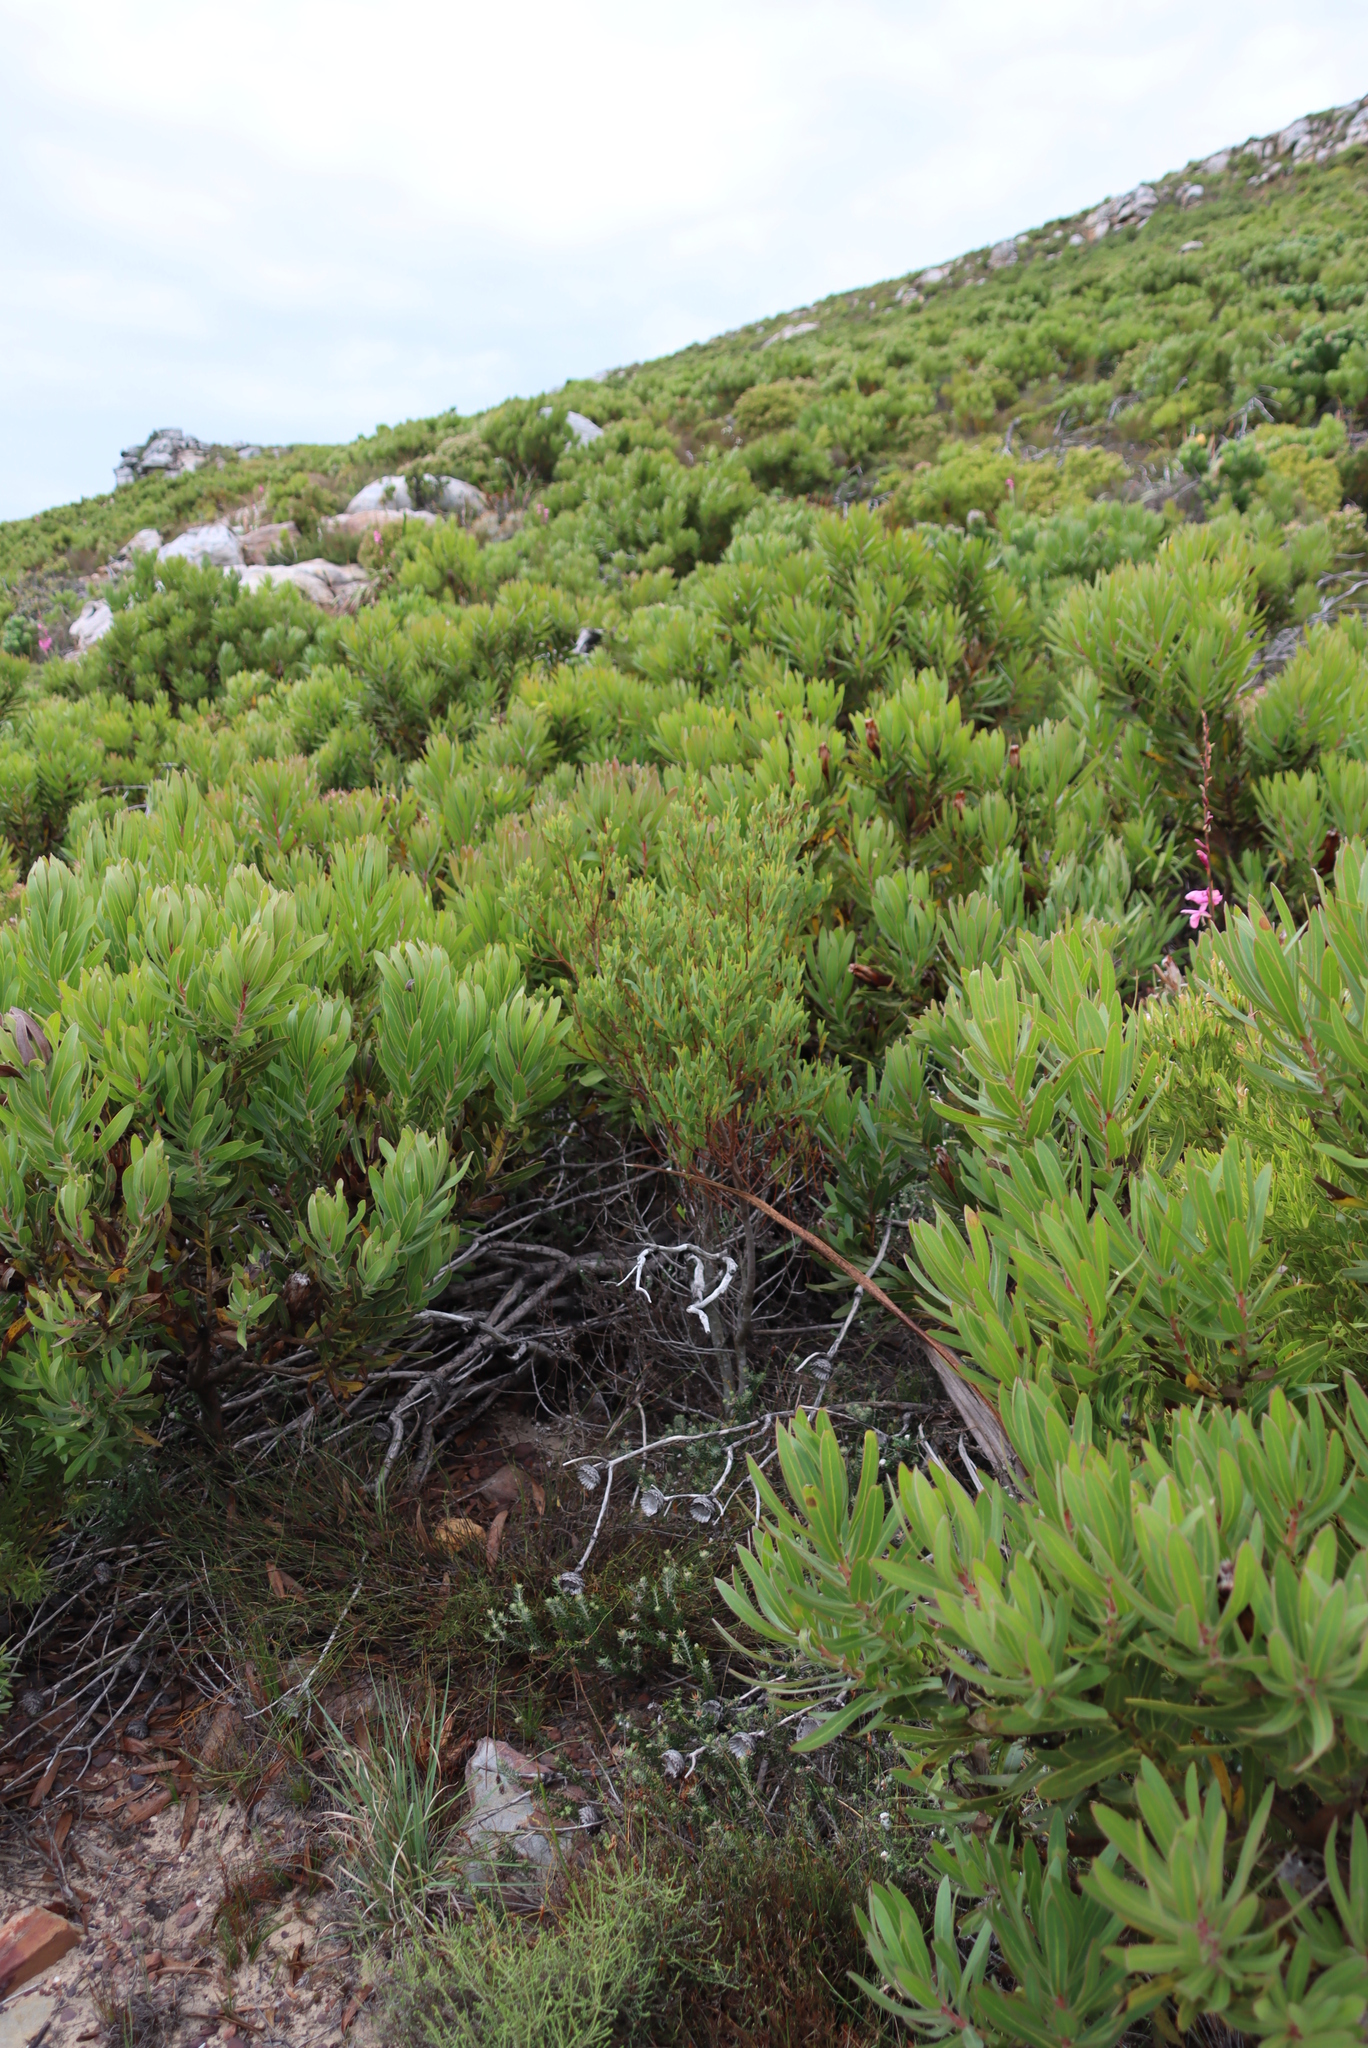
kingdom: Plantae
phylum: Tracheophyta
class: Magnoliopsida
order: Fabales
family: Fabaceae
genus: Acacia
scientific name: Acacia cyclops
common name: Coastal wattle
